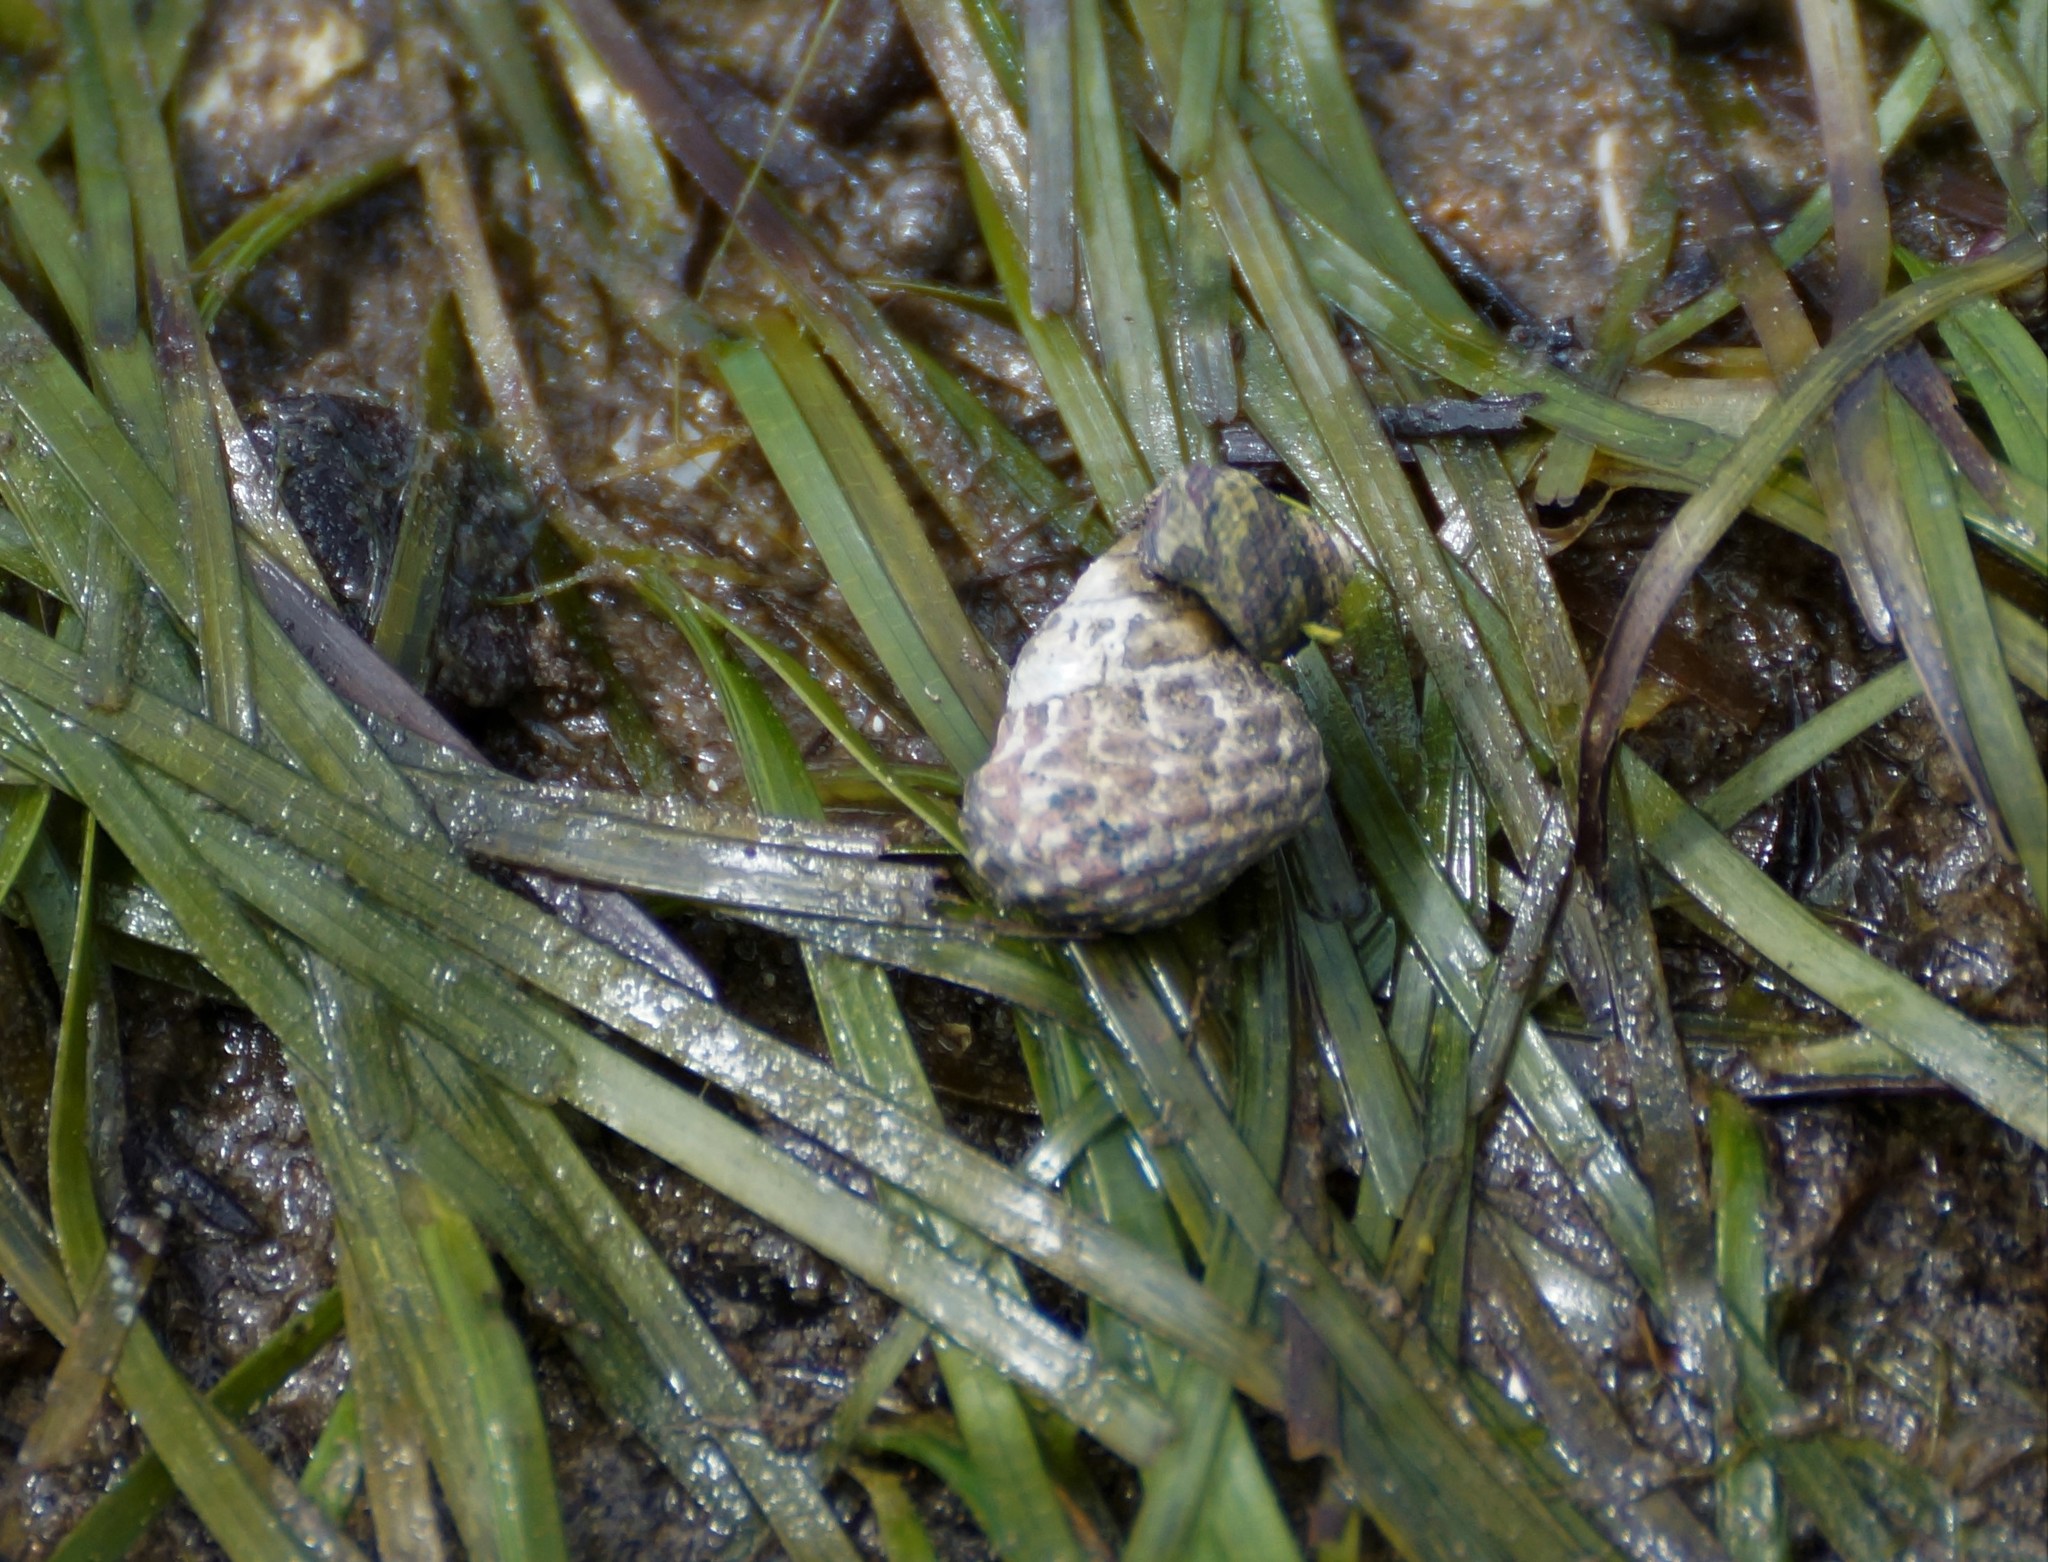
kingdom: Animalia
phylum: Mollusca
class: Gastropoda
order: Trochida
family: Trochidae
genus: Austrocochlea
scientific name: Austrocochlea porcata
